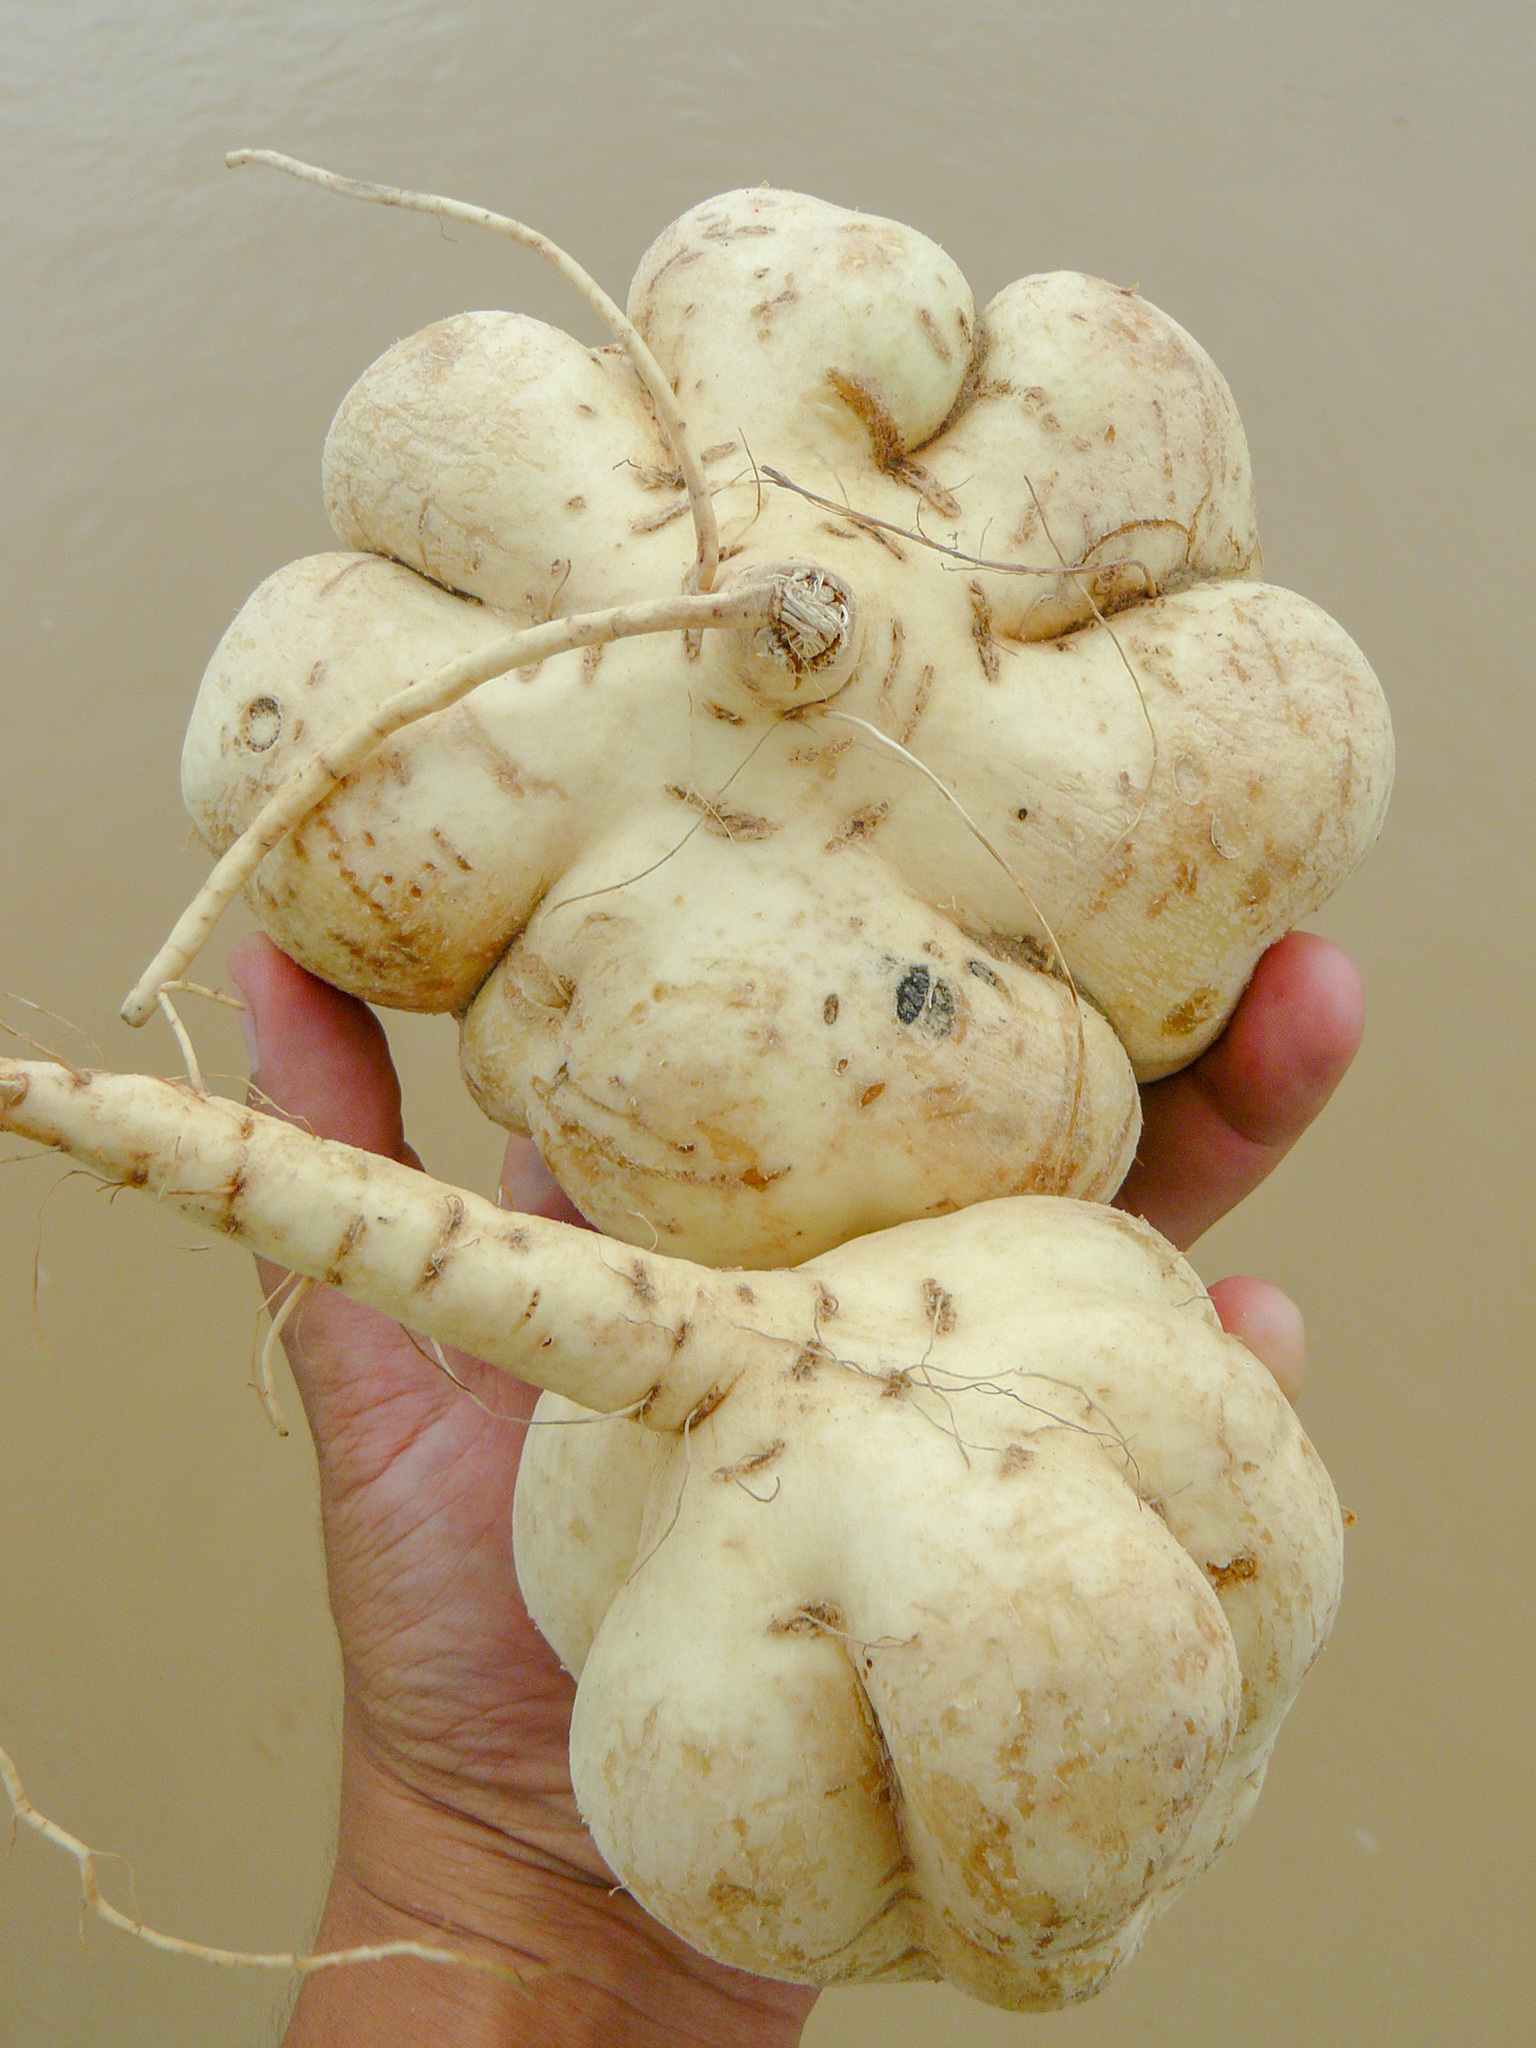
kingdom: Plantae
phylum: Tracheophyta
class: Magnoliopsida
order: Fabales
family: Fabaceae
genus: Pachyrhizus
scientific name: Pachyrhizus erosus
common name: Yam bean
